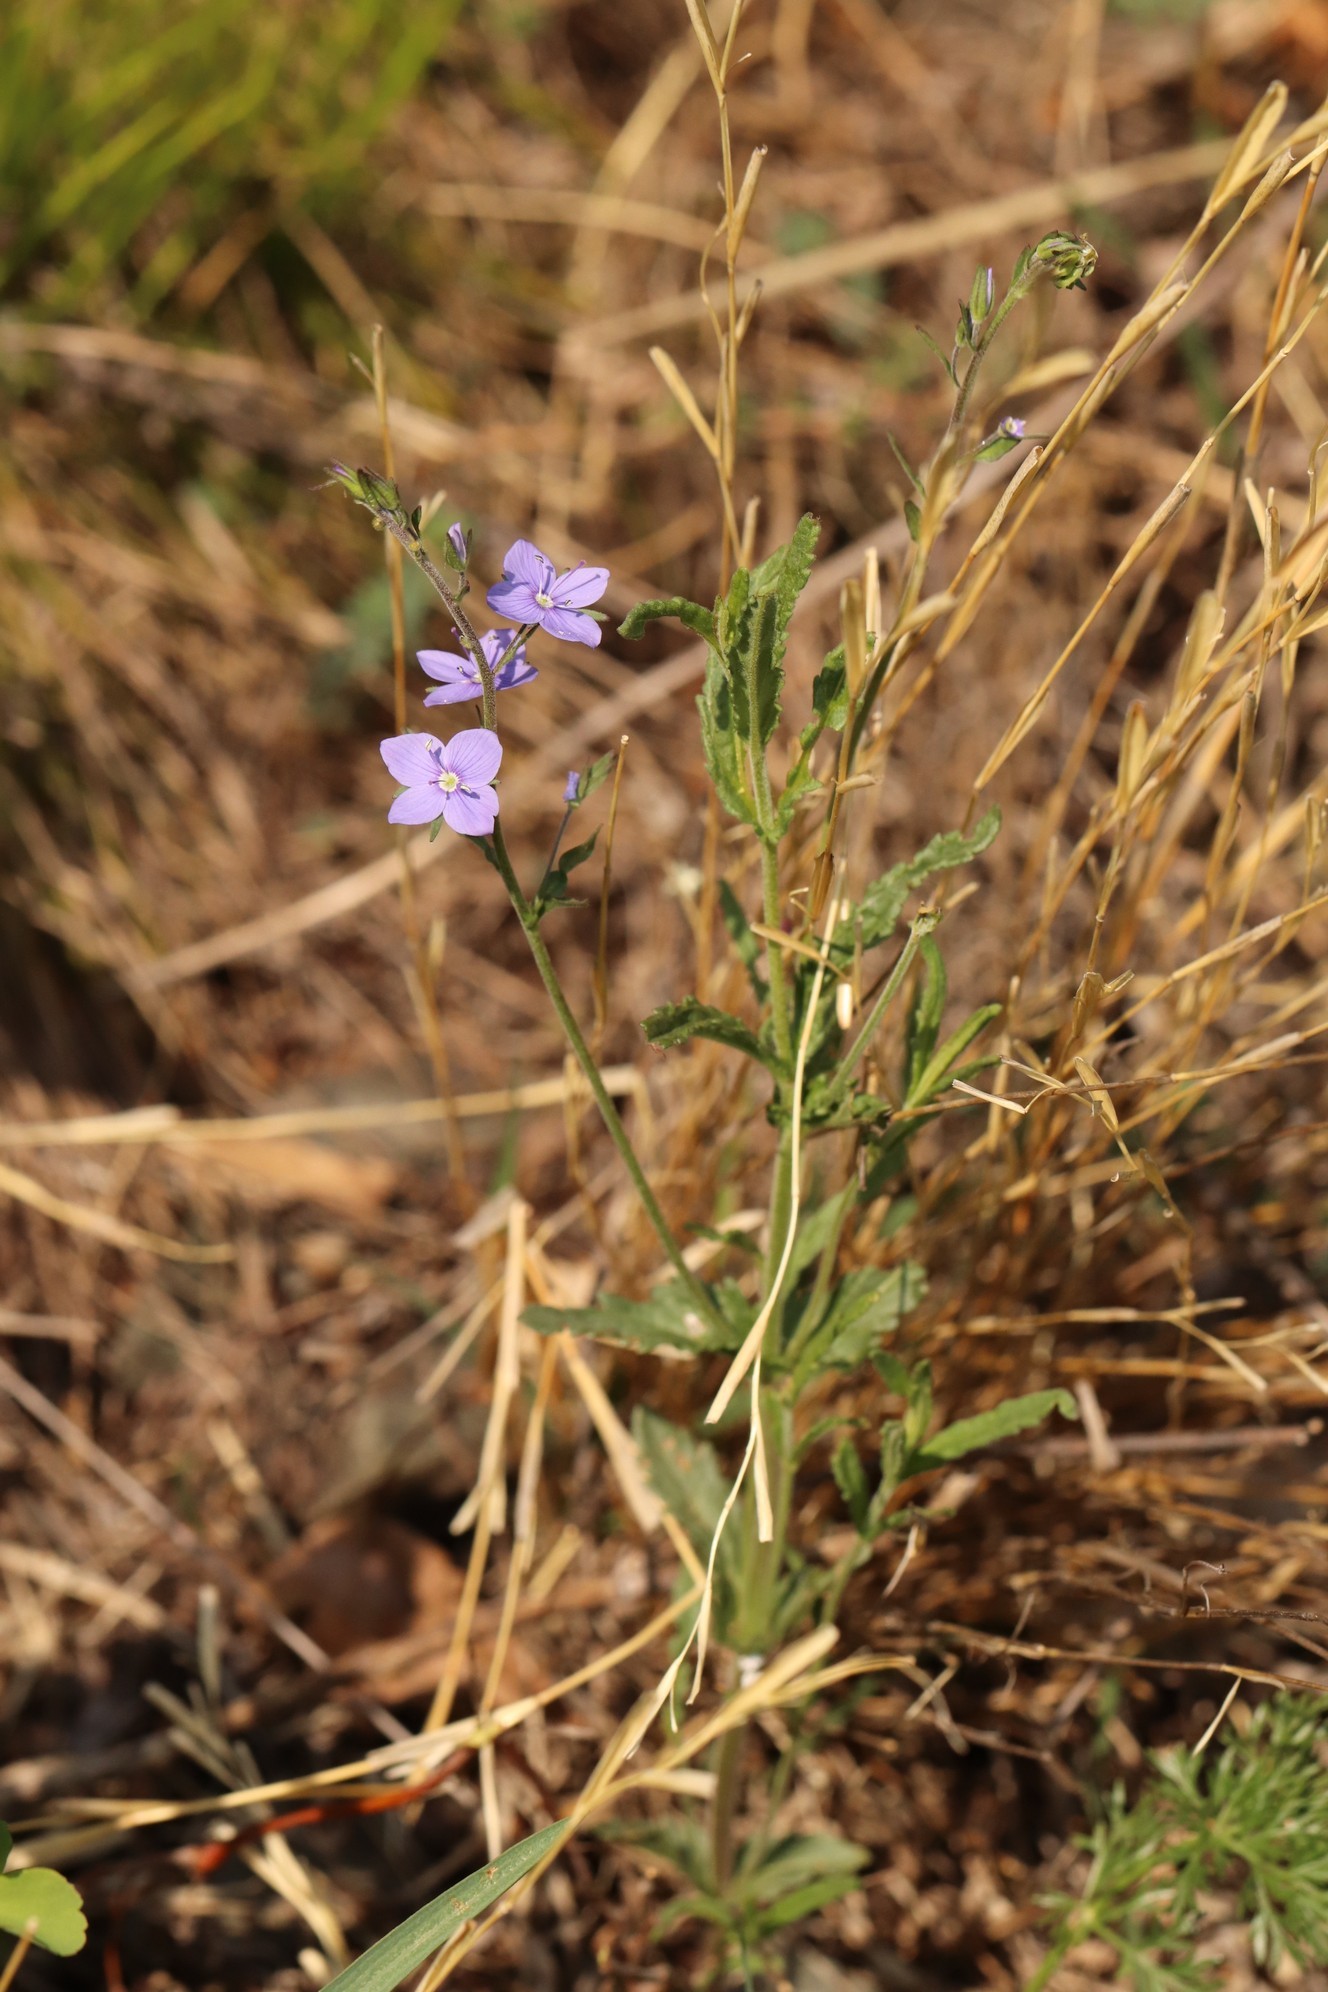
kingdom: Plantae
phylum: Tracheophyta
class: Magnoliopsida
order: Lamiales
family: Plantaginaceae
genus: Veronica
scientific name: Veronica krylovii
